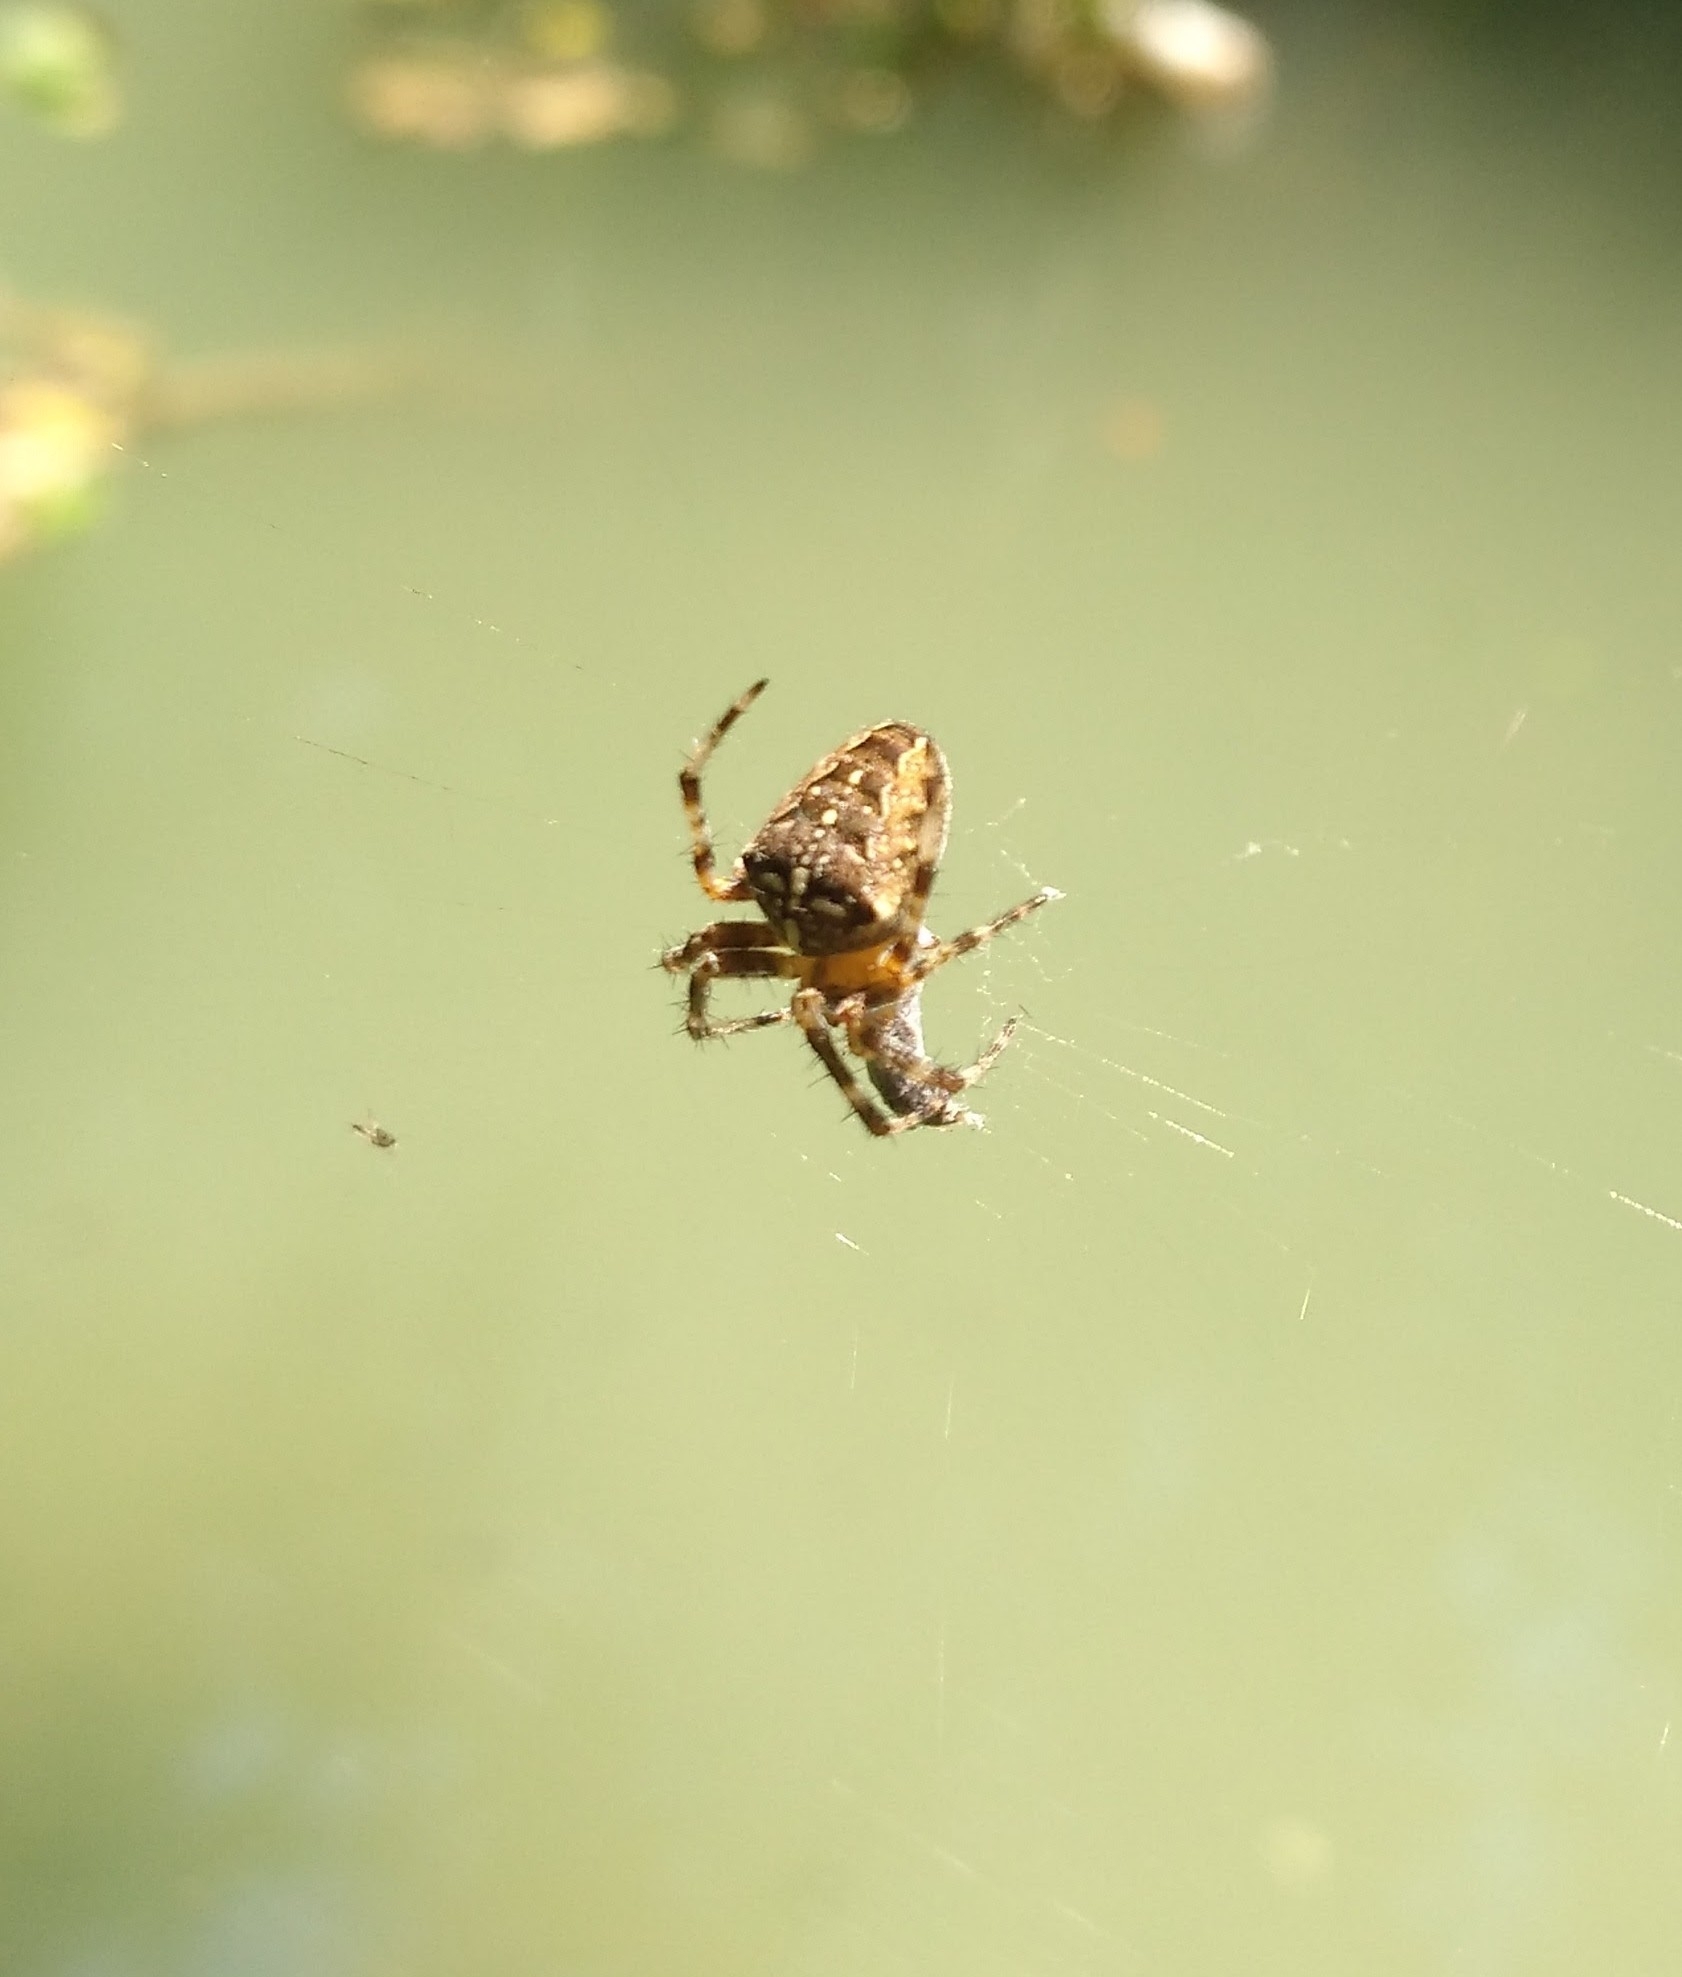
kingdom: Animalia
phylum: Arthropoda
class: Arachnida
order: Araneae
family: Araneidae
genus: Araneus
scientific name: Araneus diadematus
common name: Cross orbweaver
